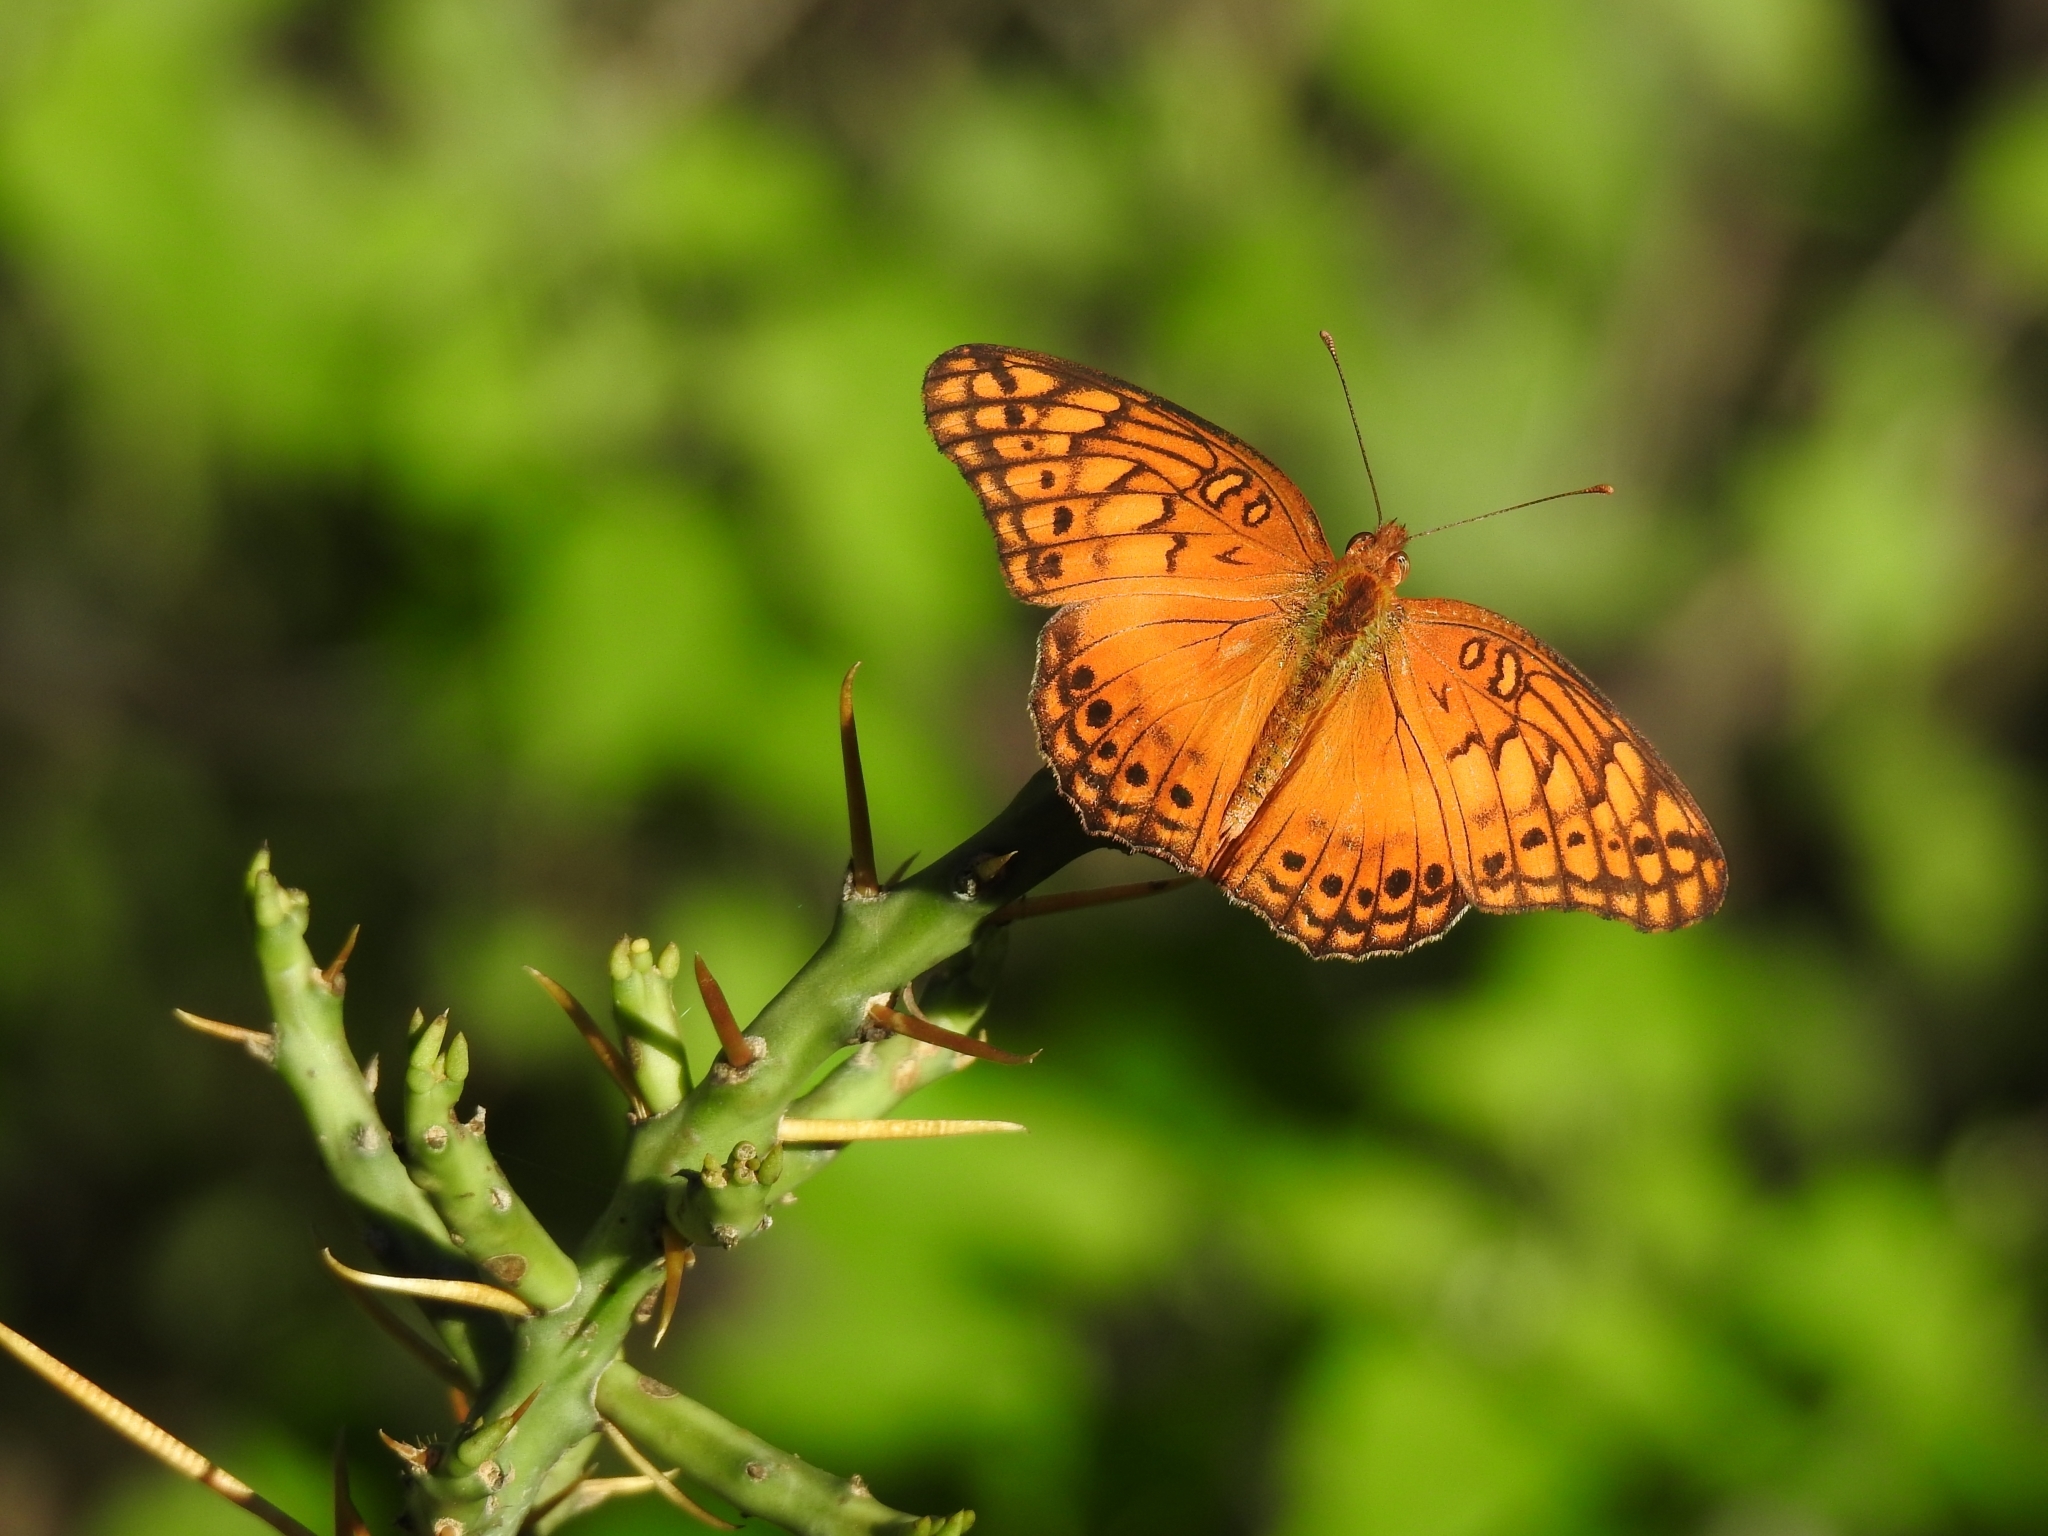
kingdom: Animalia
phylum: Arthropoda
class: Insecta
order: Lepidoptera
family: Nymphalidae
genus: Euptoieta
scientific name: Euptoieta hegesia
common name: Mexican fritillary
